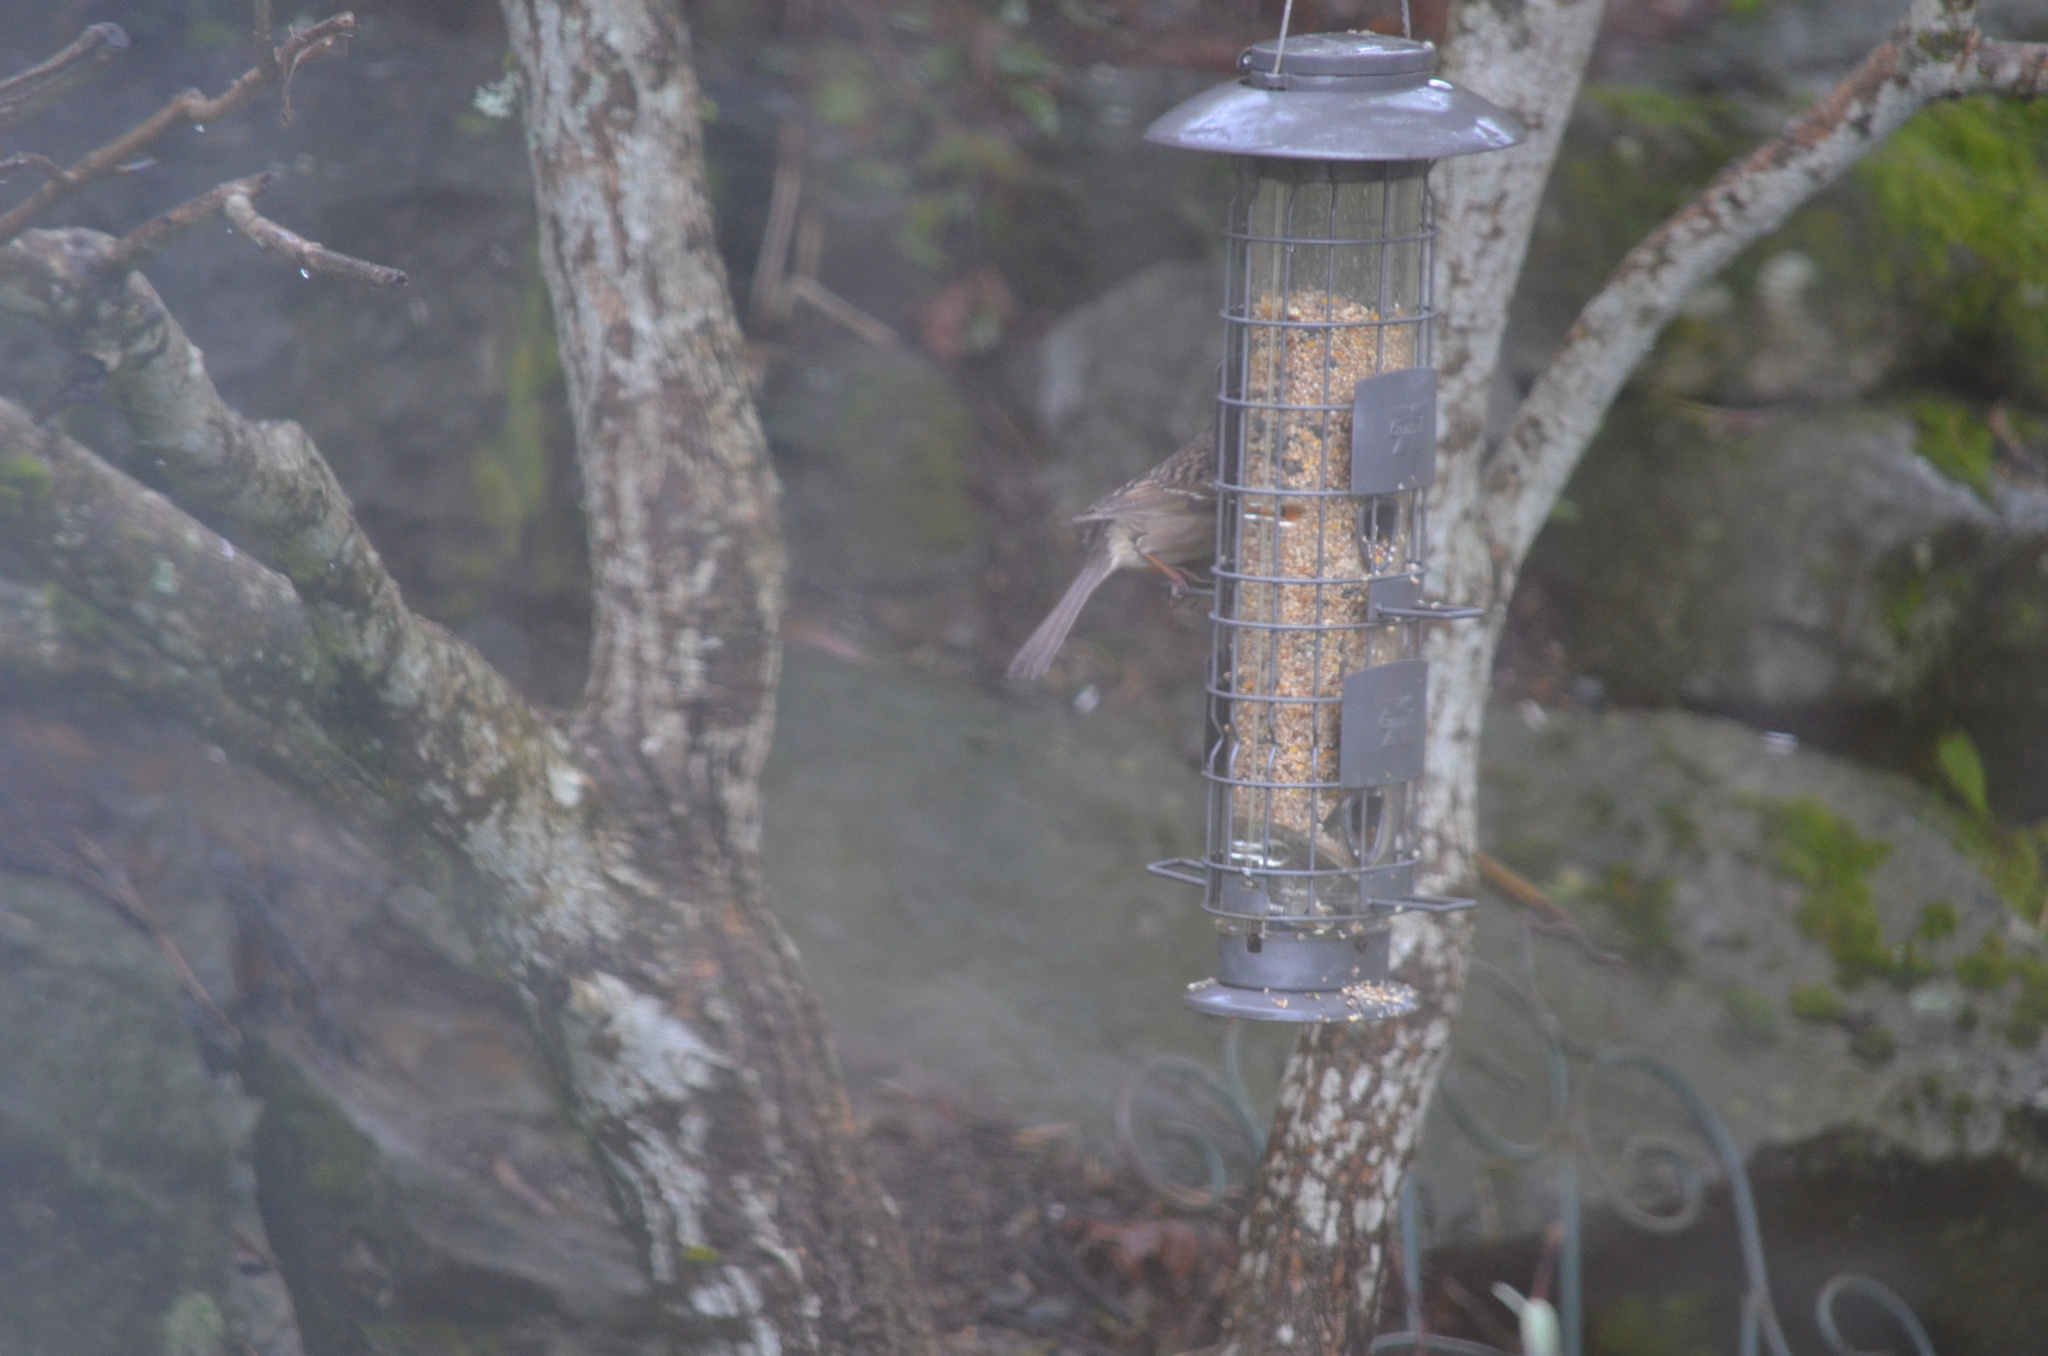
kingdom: Animalia
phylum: Chordata
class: Aves
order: Passeriformes
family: Passerellidae
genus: Zonotrichia
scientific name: Zonotrichia atricapilla
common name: Golden-crowned sparrow
